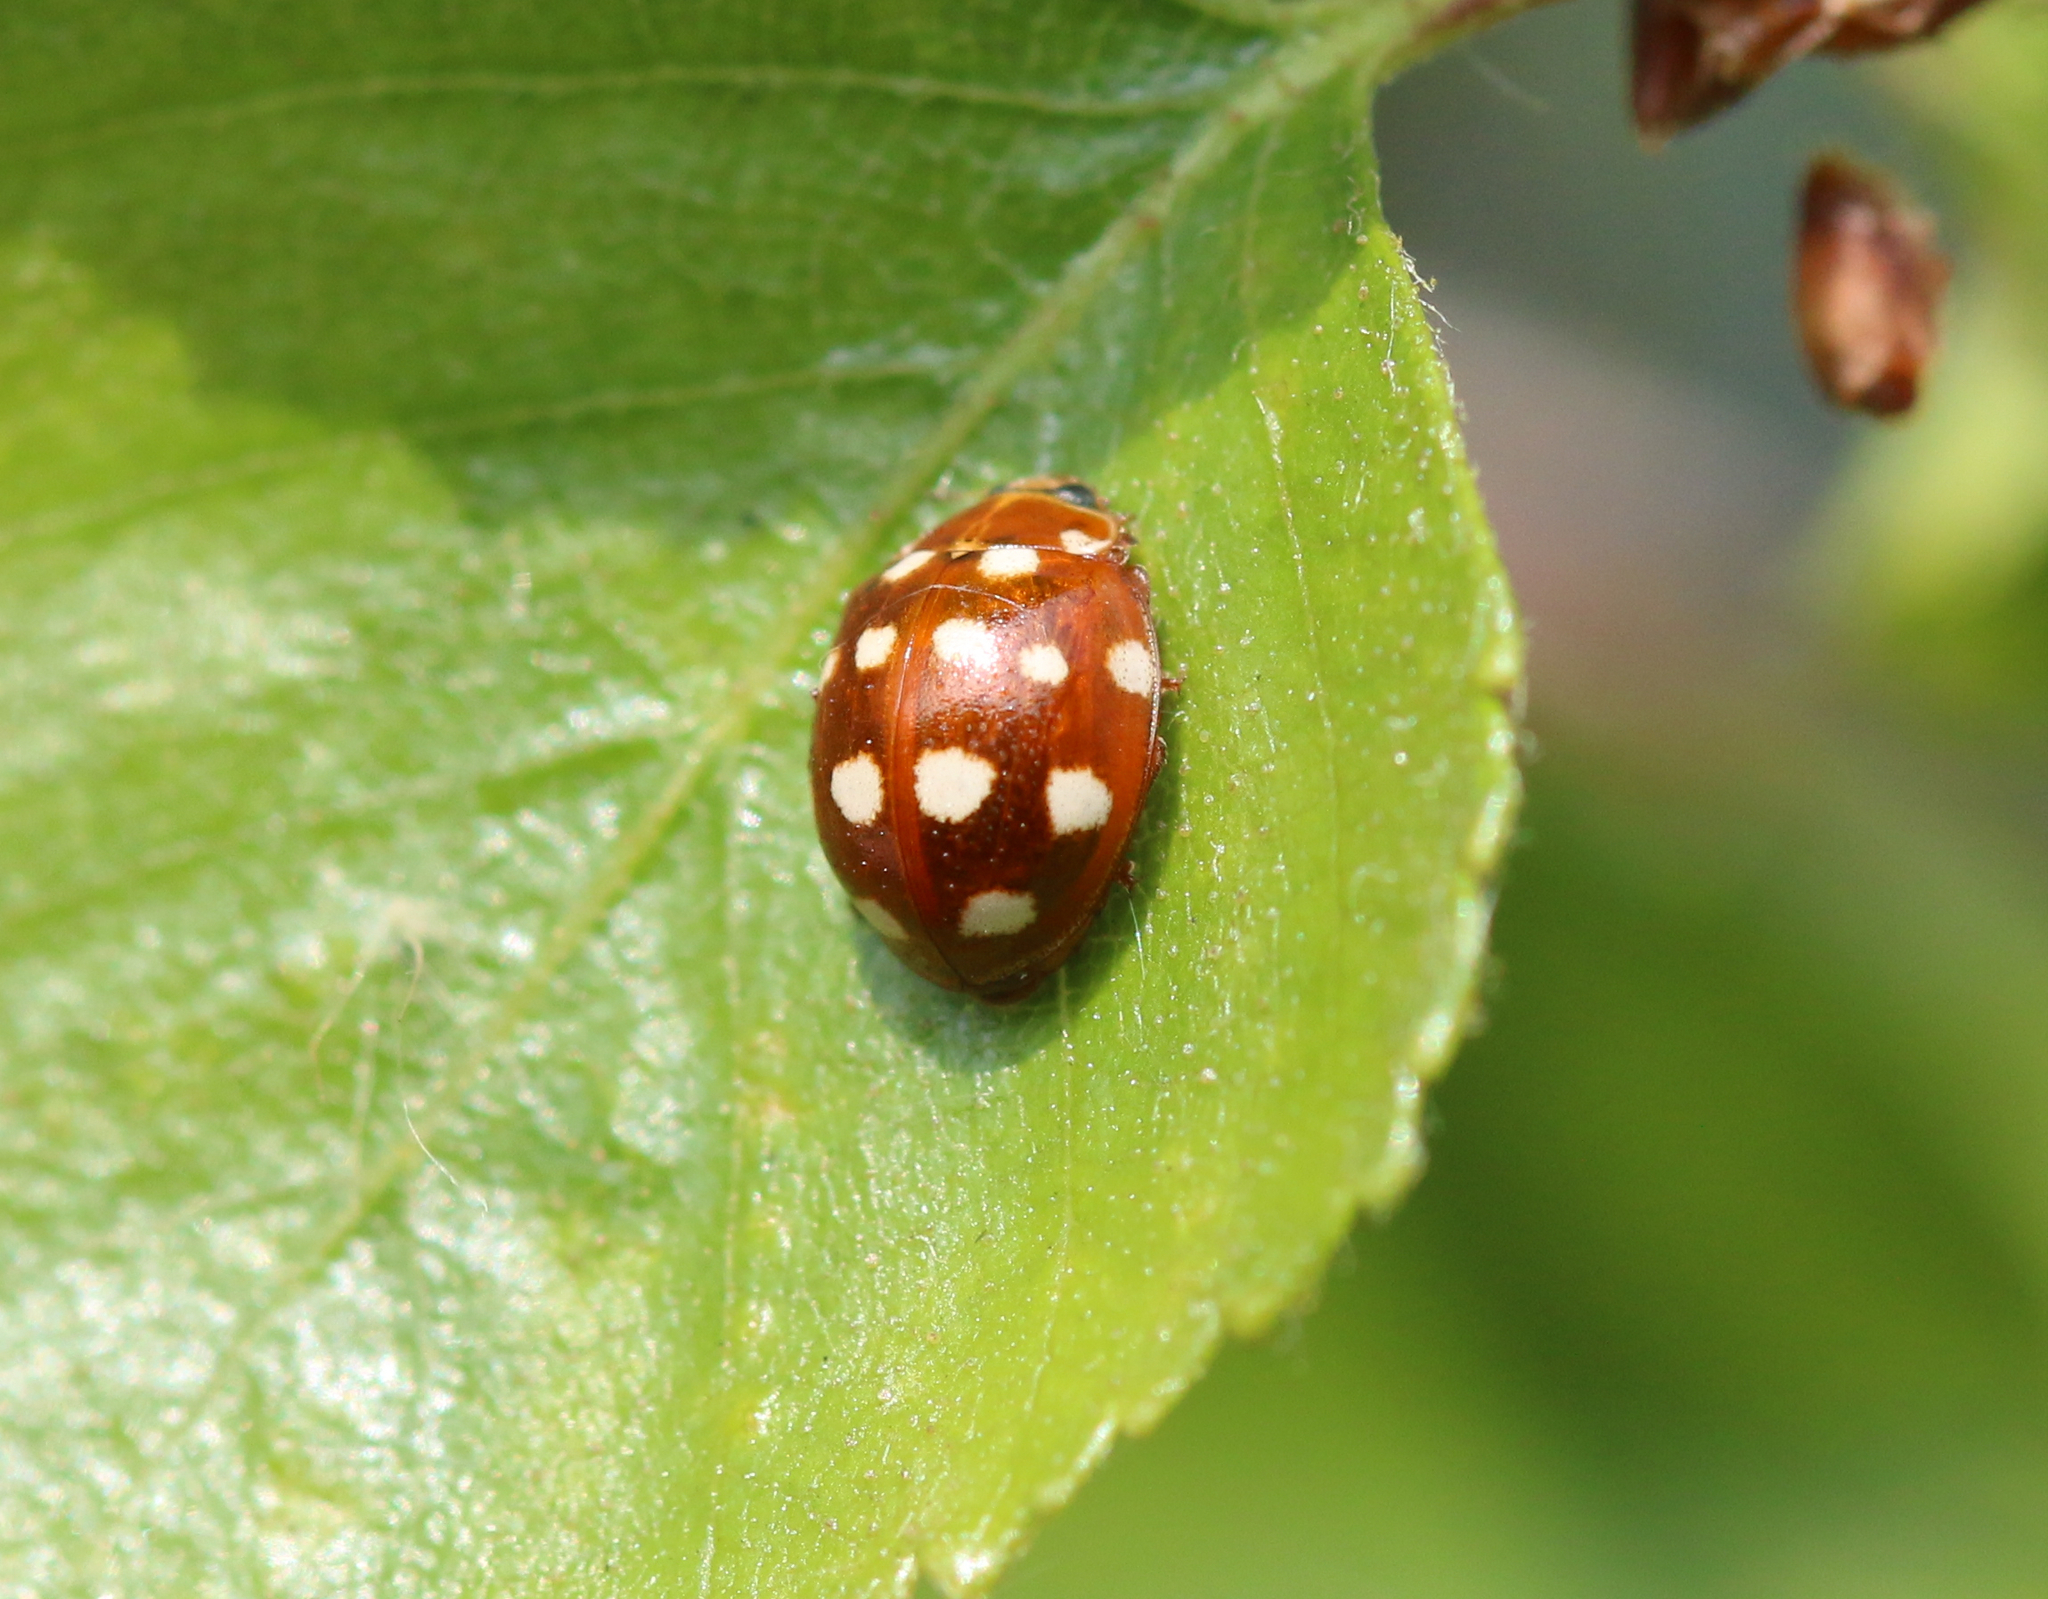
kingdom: Animalia
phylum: Arthropoda
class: Insecta
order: Coleoptera
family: Coccinellidae
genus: Calvia
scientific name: Calvia quatuordecimguttata
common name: Cream-spot ladybird
